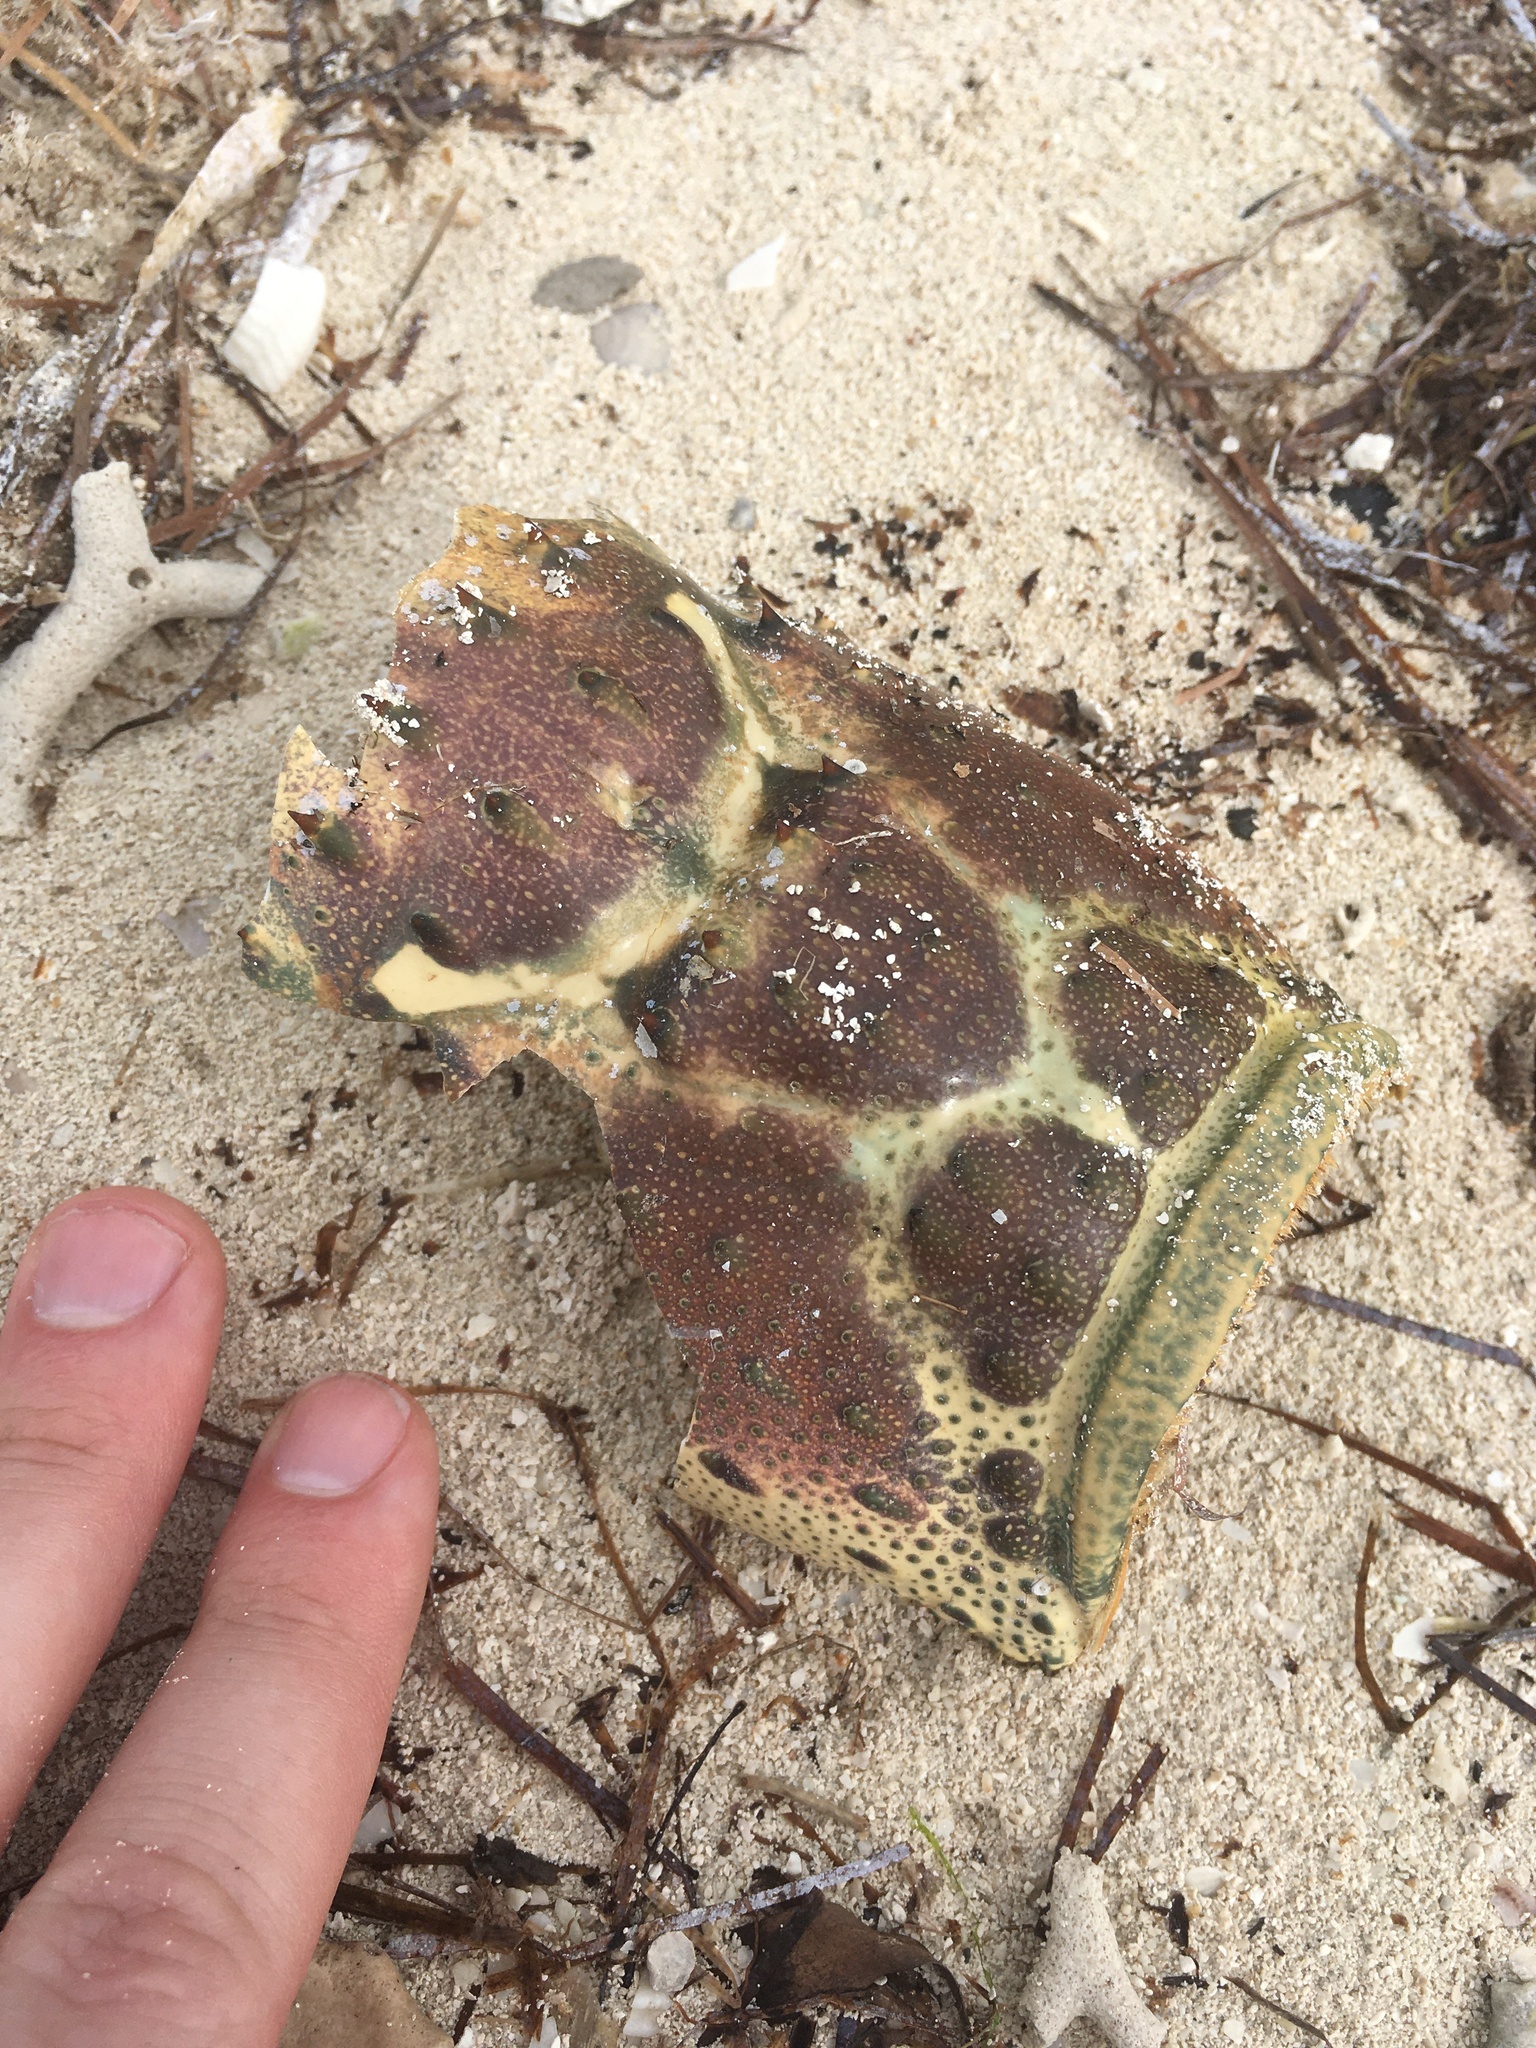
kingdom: Animalia
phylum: Arthropoda
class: Malacostraca
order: Decapoda
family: Palinuridae
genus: Panulirus
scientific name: Panulirus argus
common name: Caribbean spiny lobster
